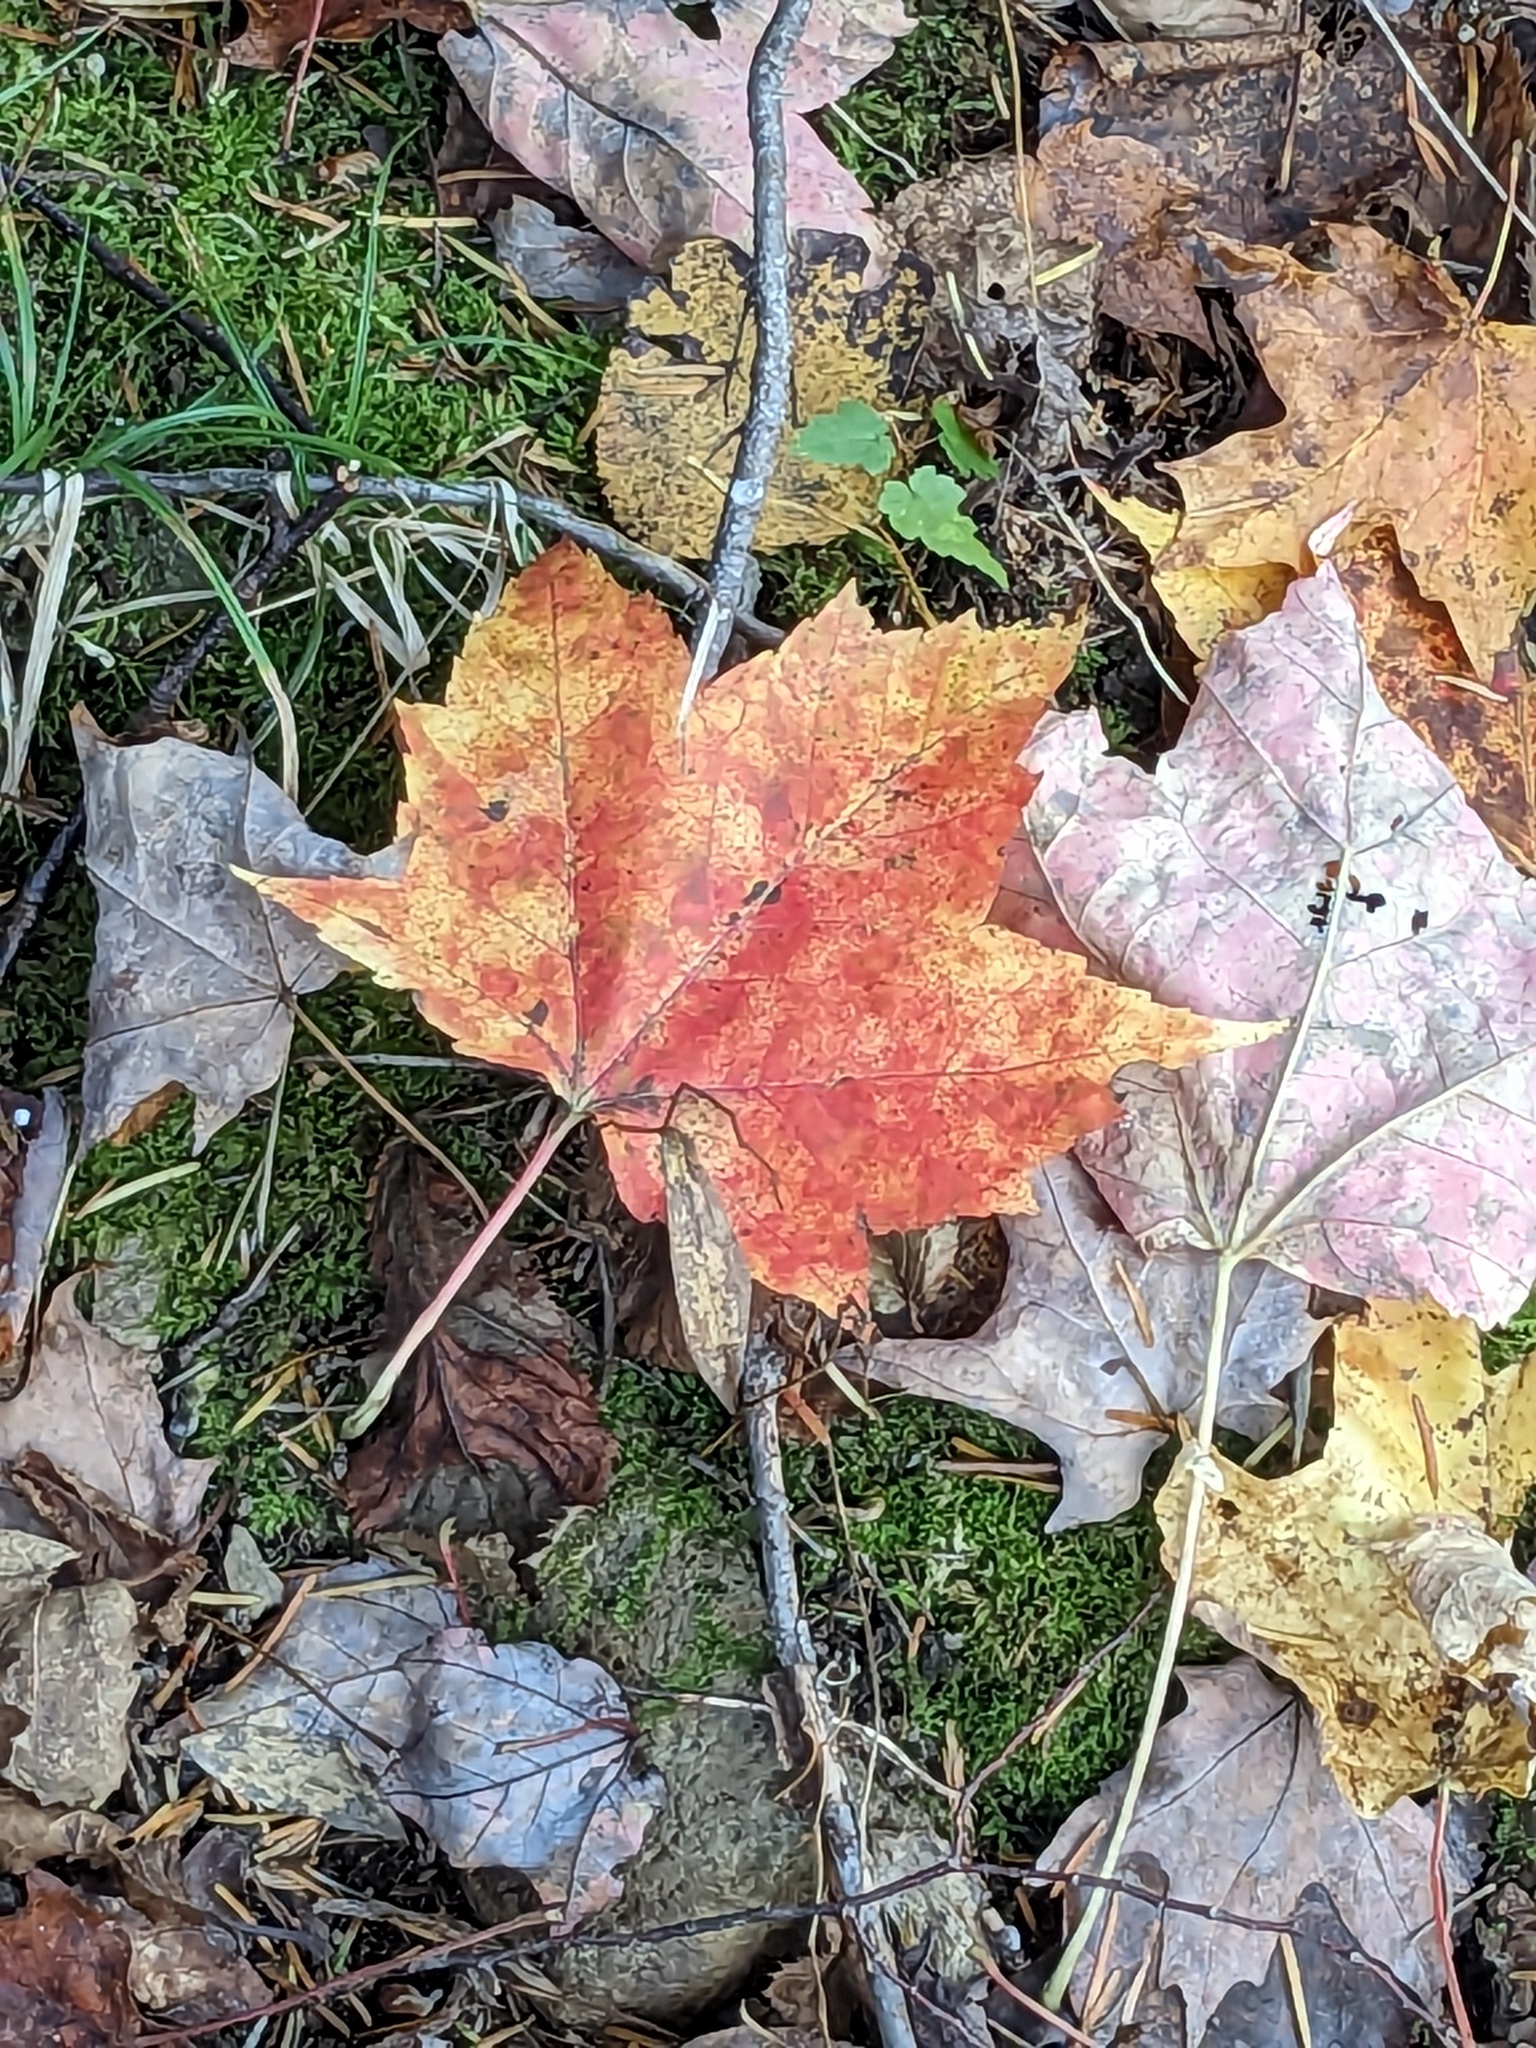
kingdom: Plantae
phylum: Tracheophyta
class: Magnoliopsida
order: Sapindales
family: Sapindaceae
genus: Acer
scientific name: Acer rubrum
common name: Red maple
